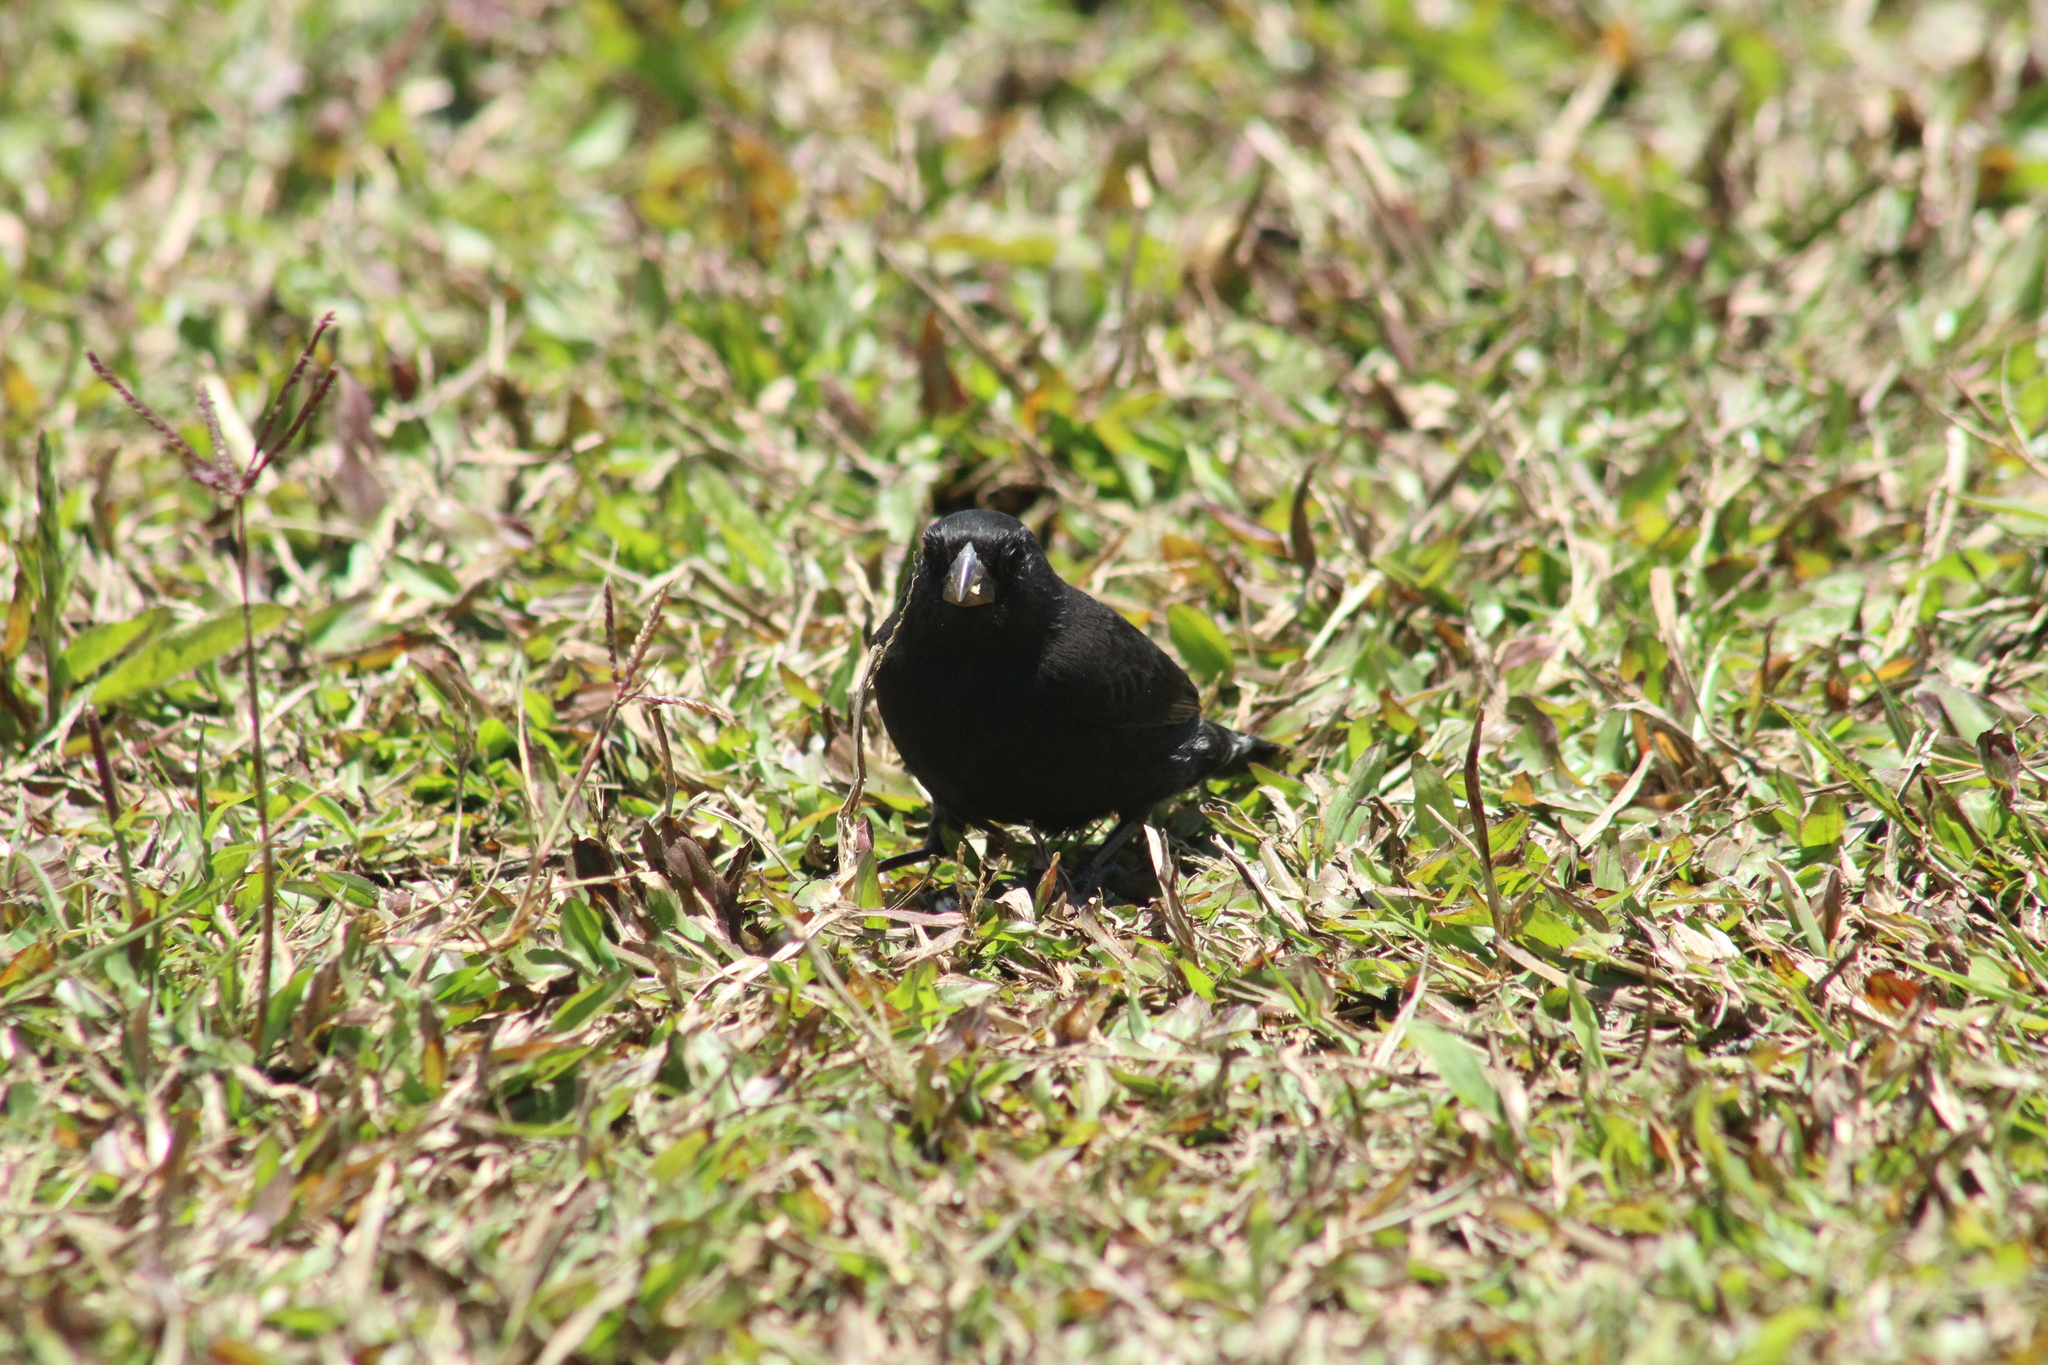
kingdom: Animalia
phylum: Chordata
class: Aves
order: Passeriformes
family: Thraupidae
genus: Geospiza
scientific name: Geospiza fortis
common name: Medium ground finch
